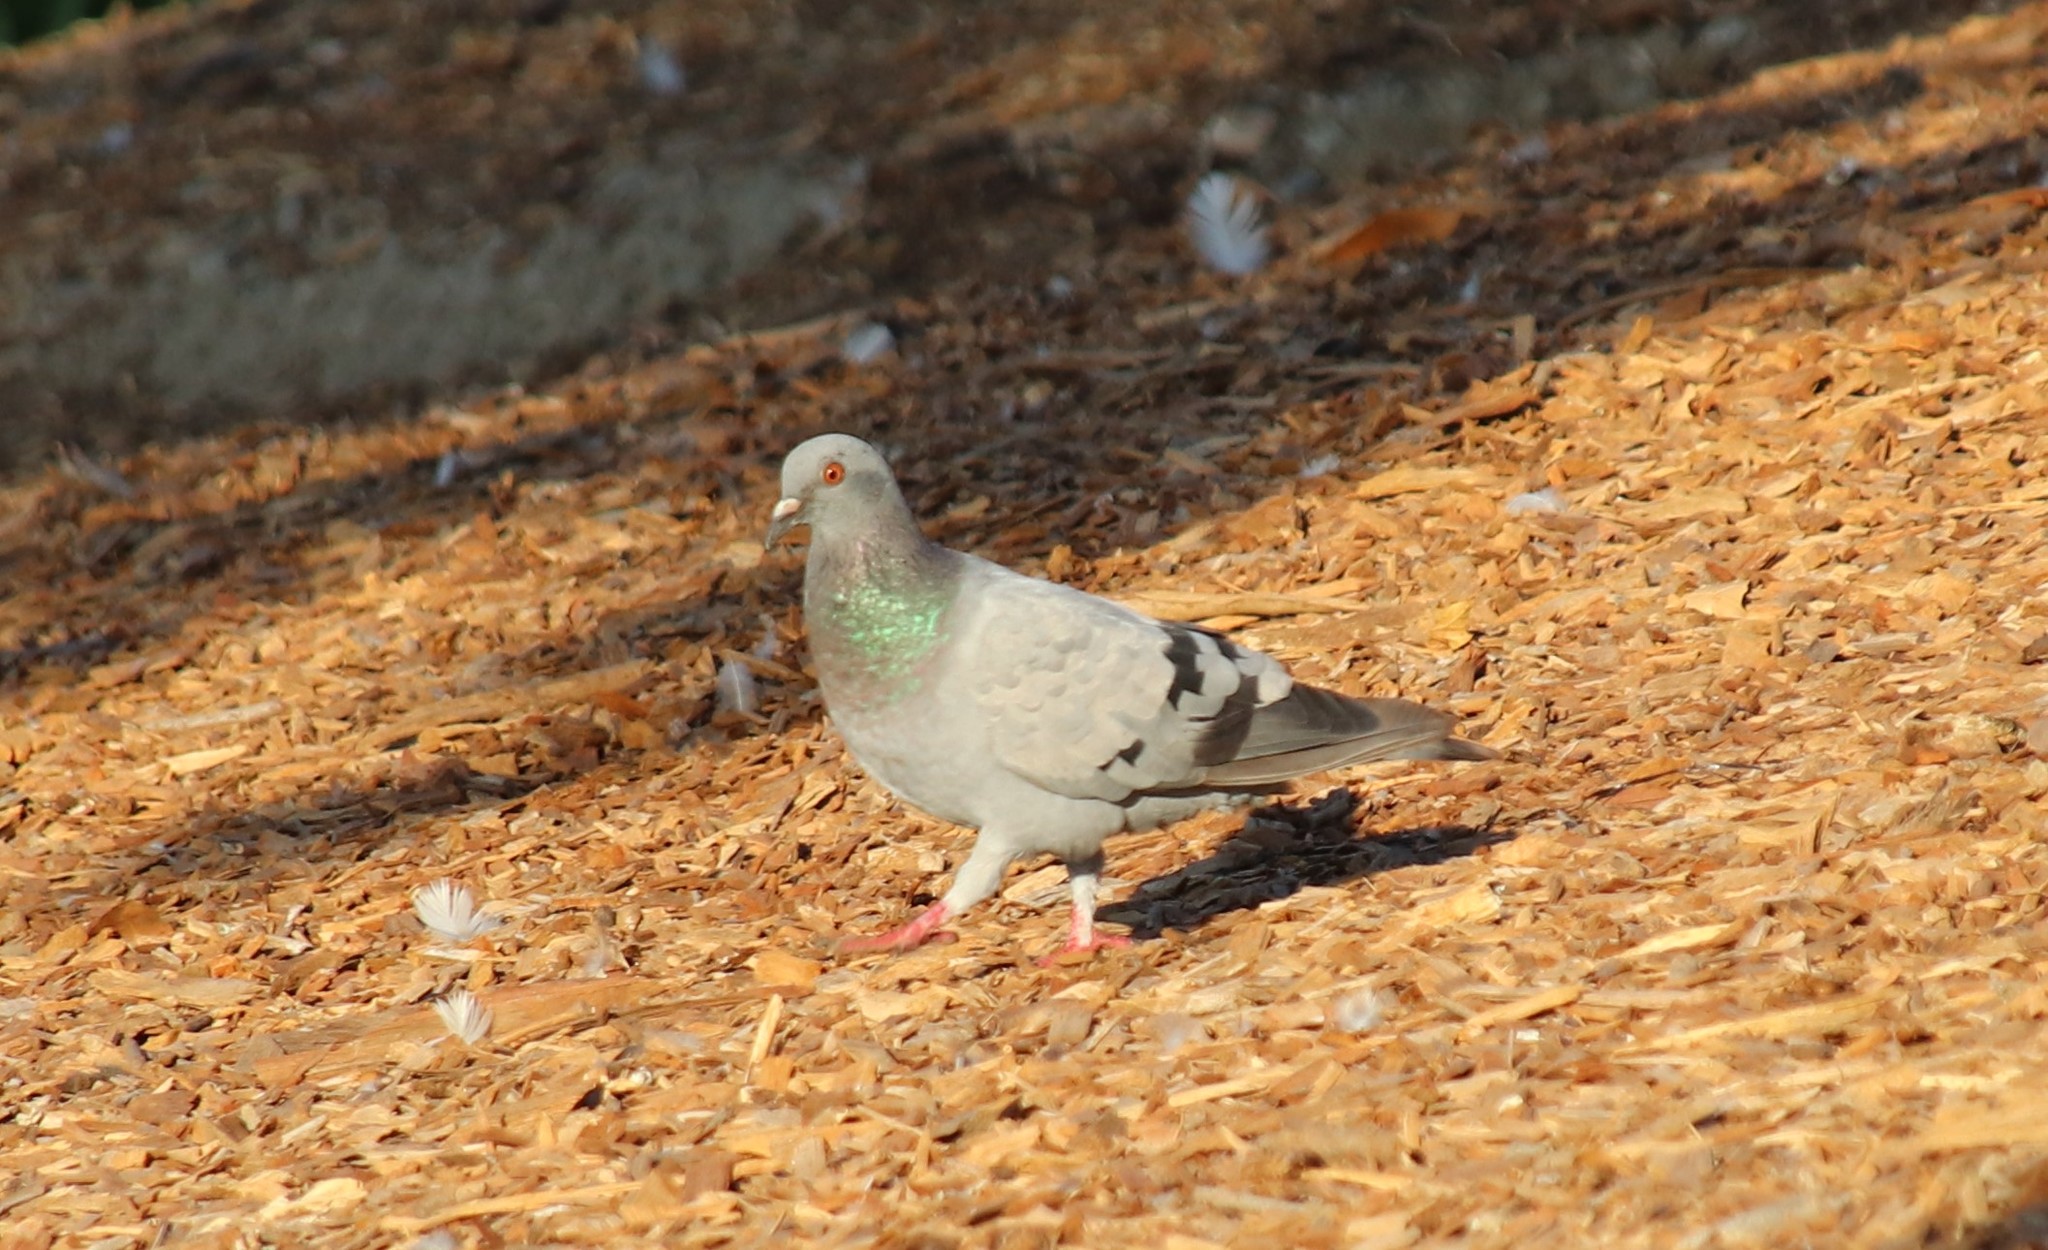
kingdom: Animalia
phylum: Chordata
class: Aves
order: Columbiformes
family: Columbidae
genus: Columba
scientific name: Columba livia
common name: Rock pigeon
